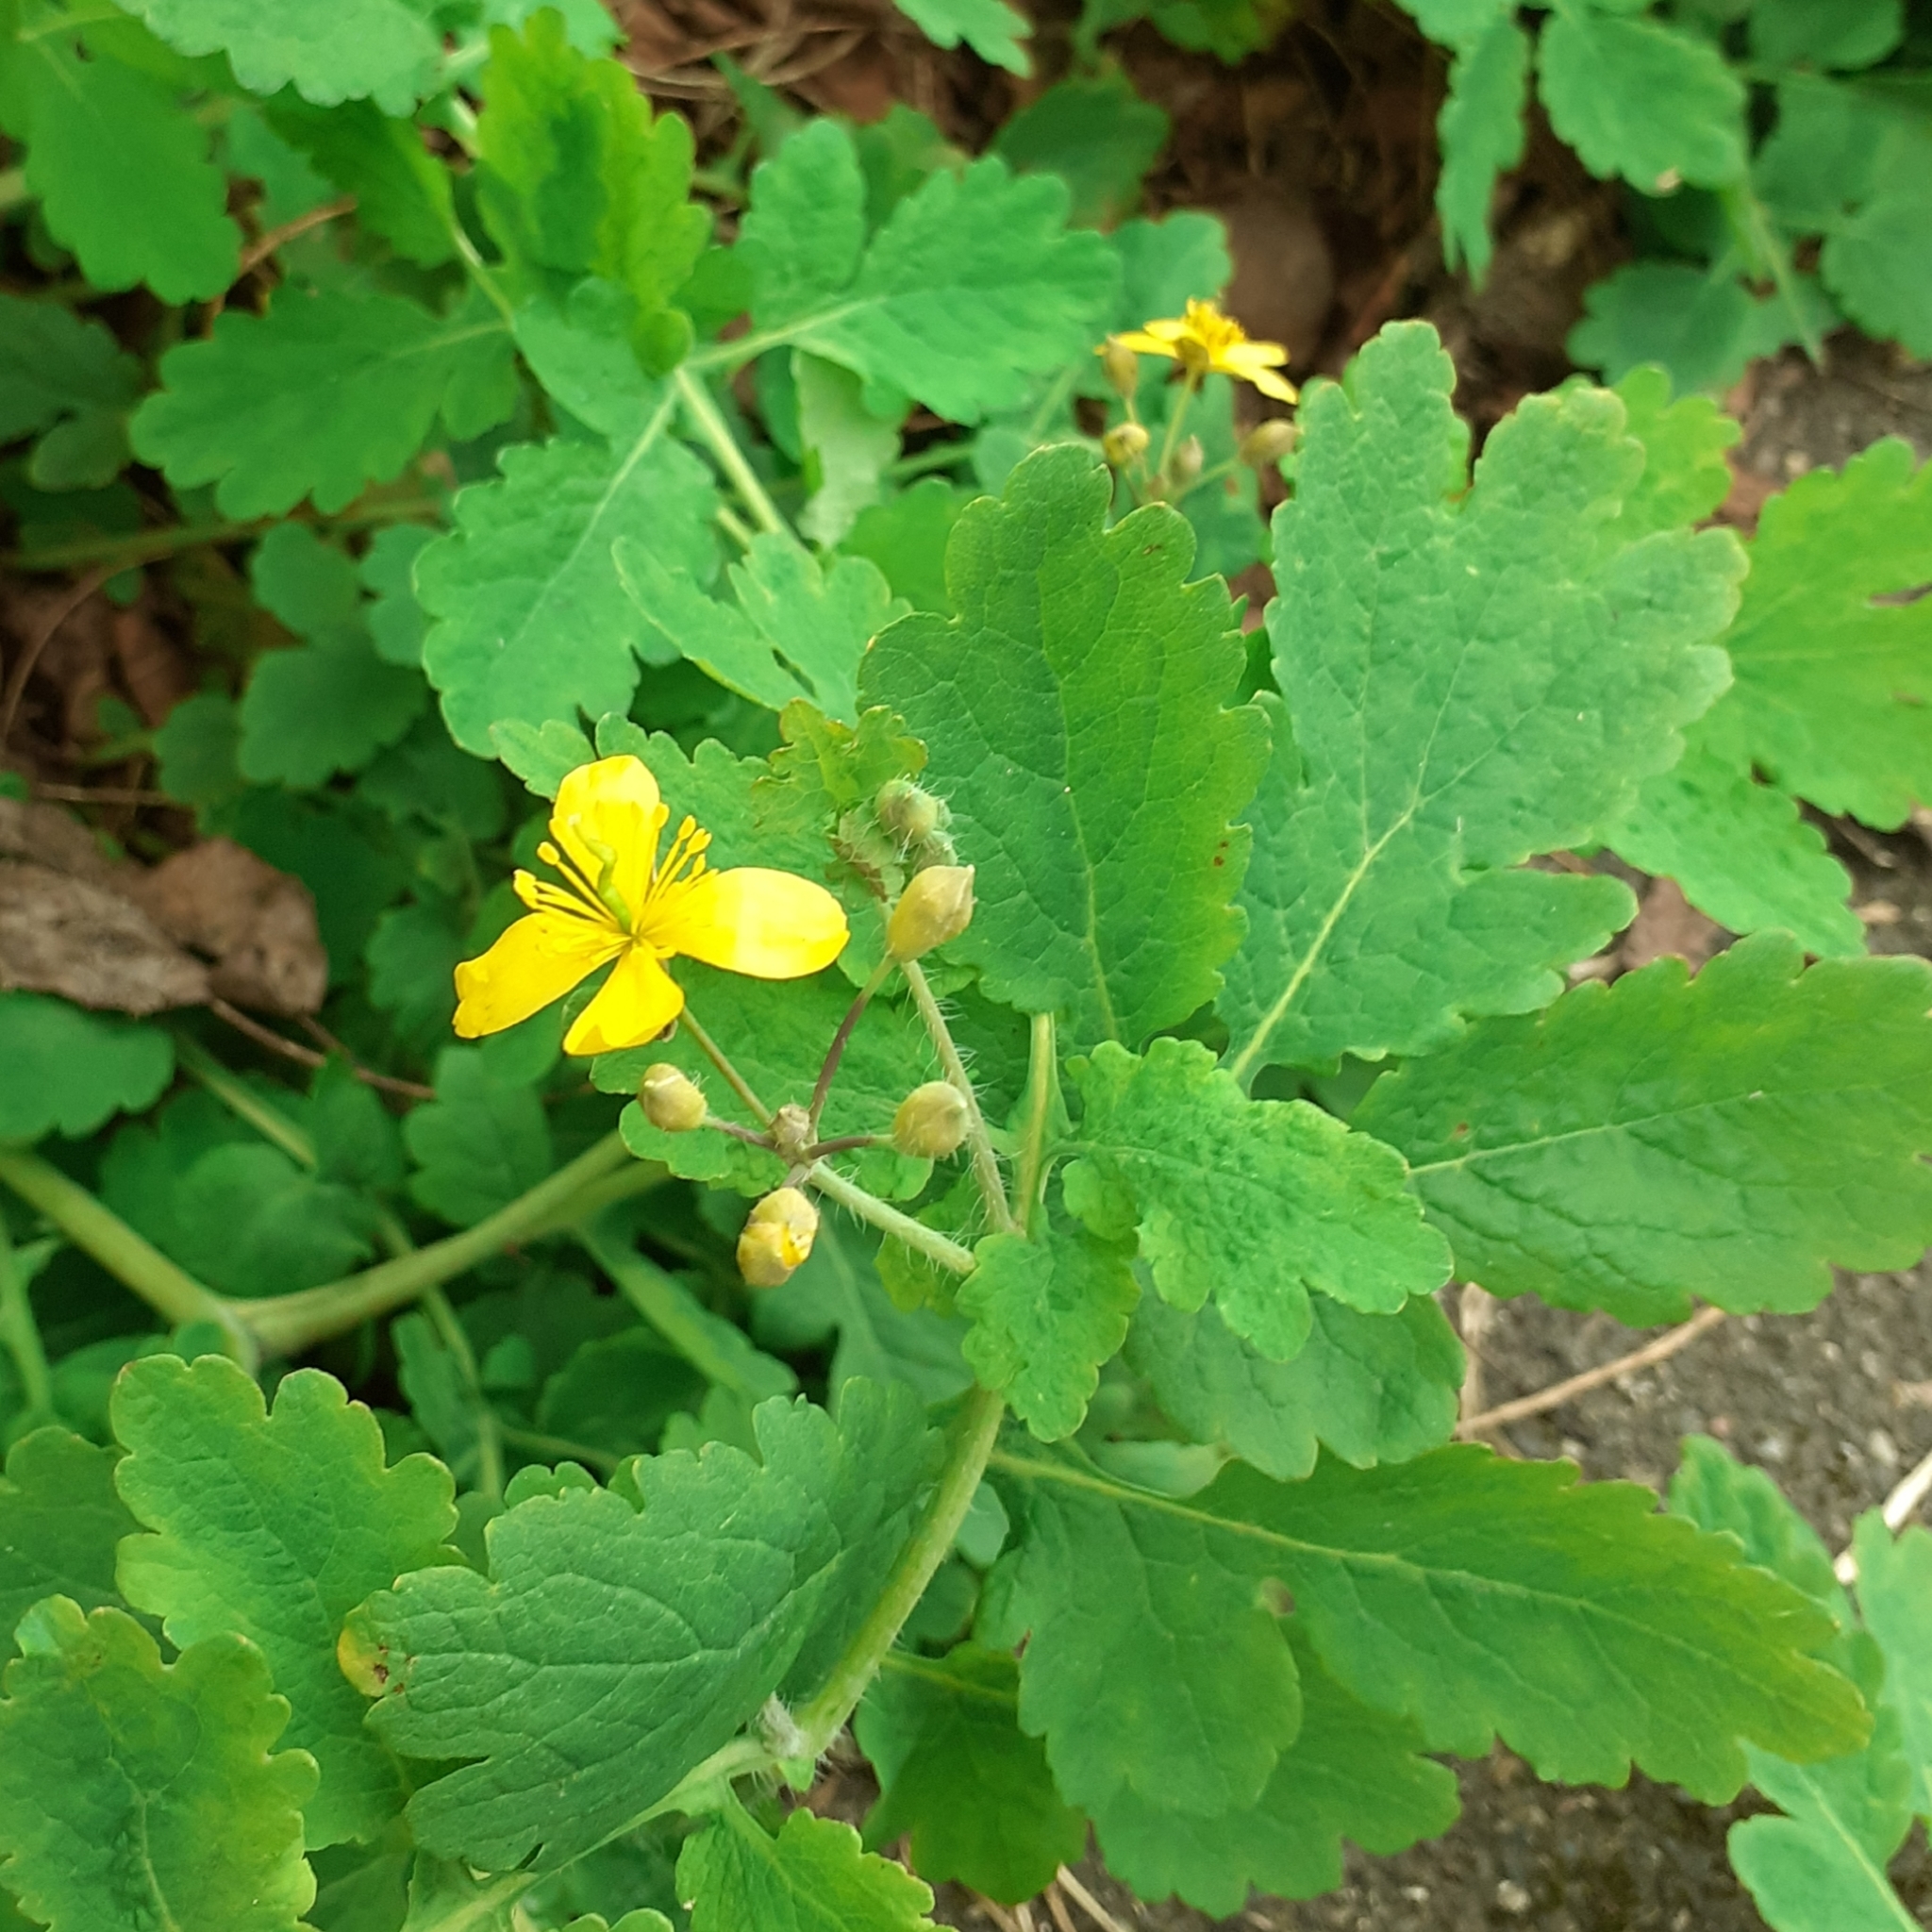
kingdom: Plantae
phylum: Tracheophyta
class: Magnoliopsida
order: Ranunculales
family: Papaveraceae
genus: Chelidonium
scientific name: Chelidonium majus
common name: Greater celandine
